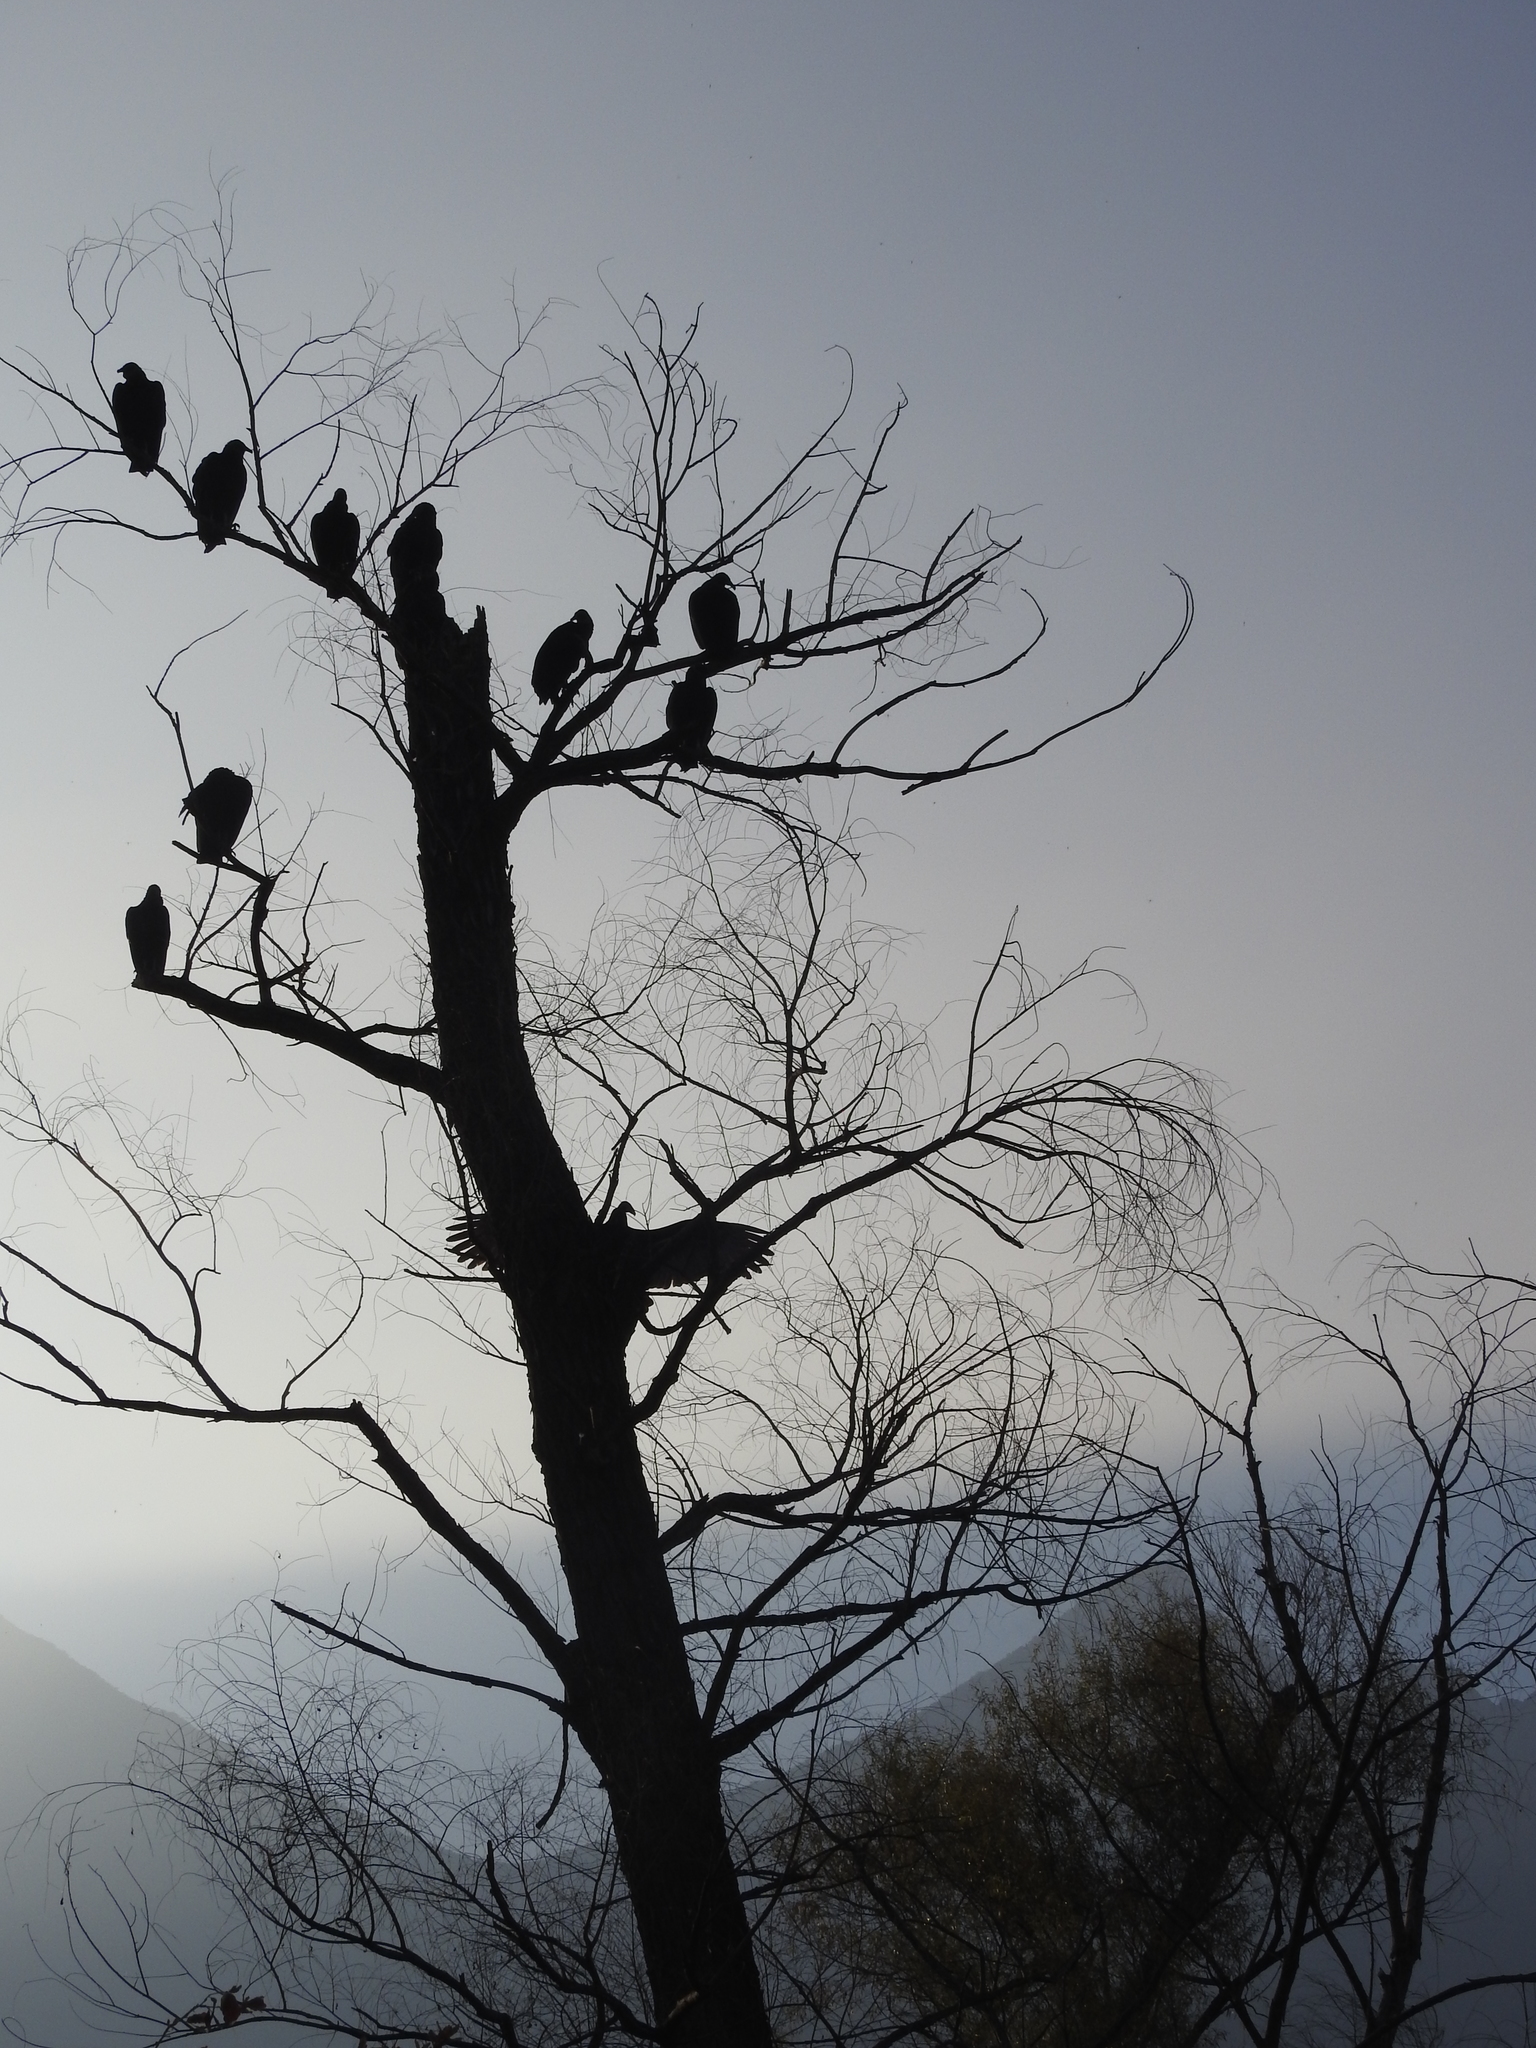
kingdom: Animalia
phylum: Chordata
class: Aves
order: Accipitriformes
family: Cathartidae
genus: Coragyps
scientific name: Coragyps atratus
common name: Black vulture
